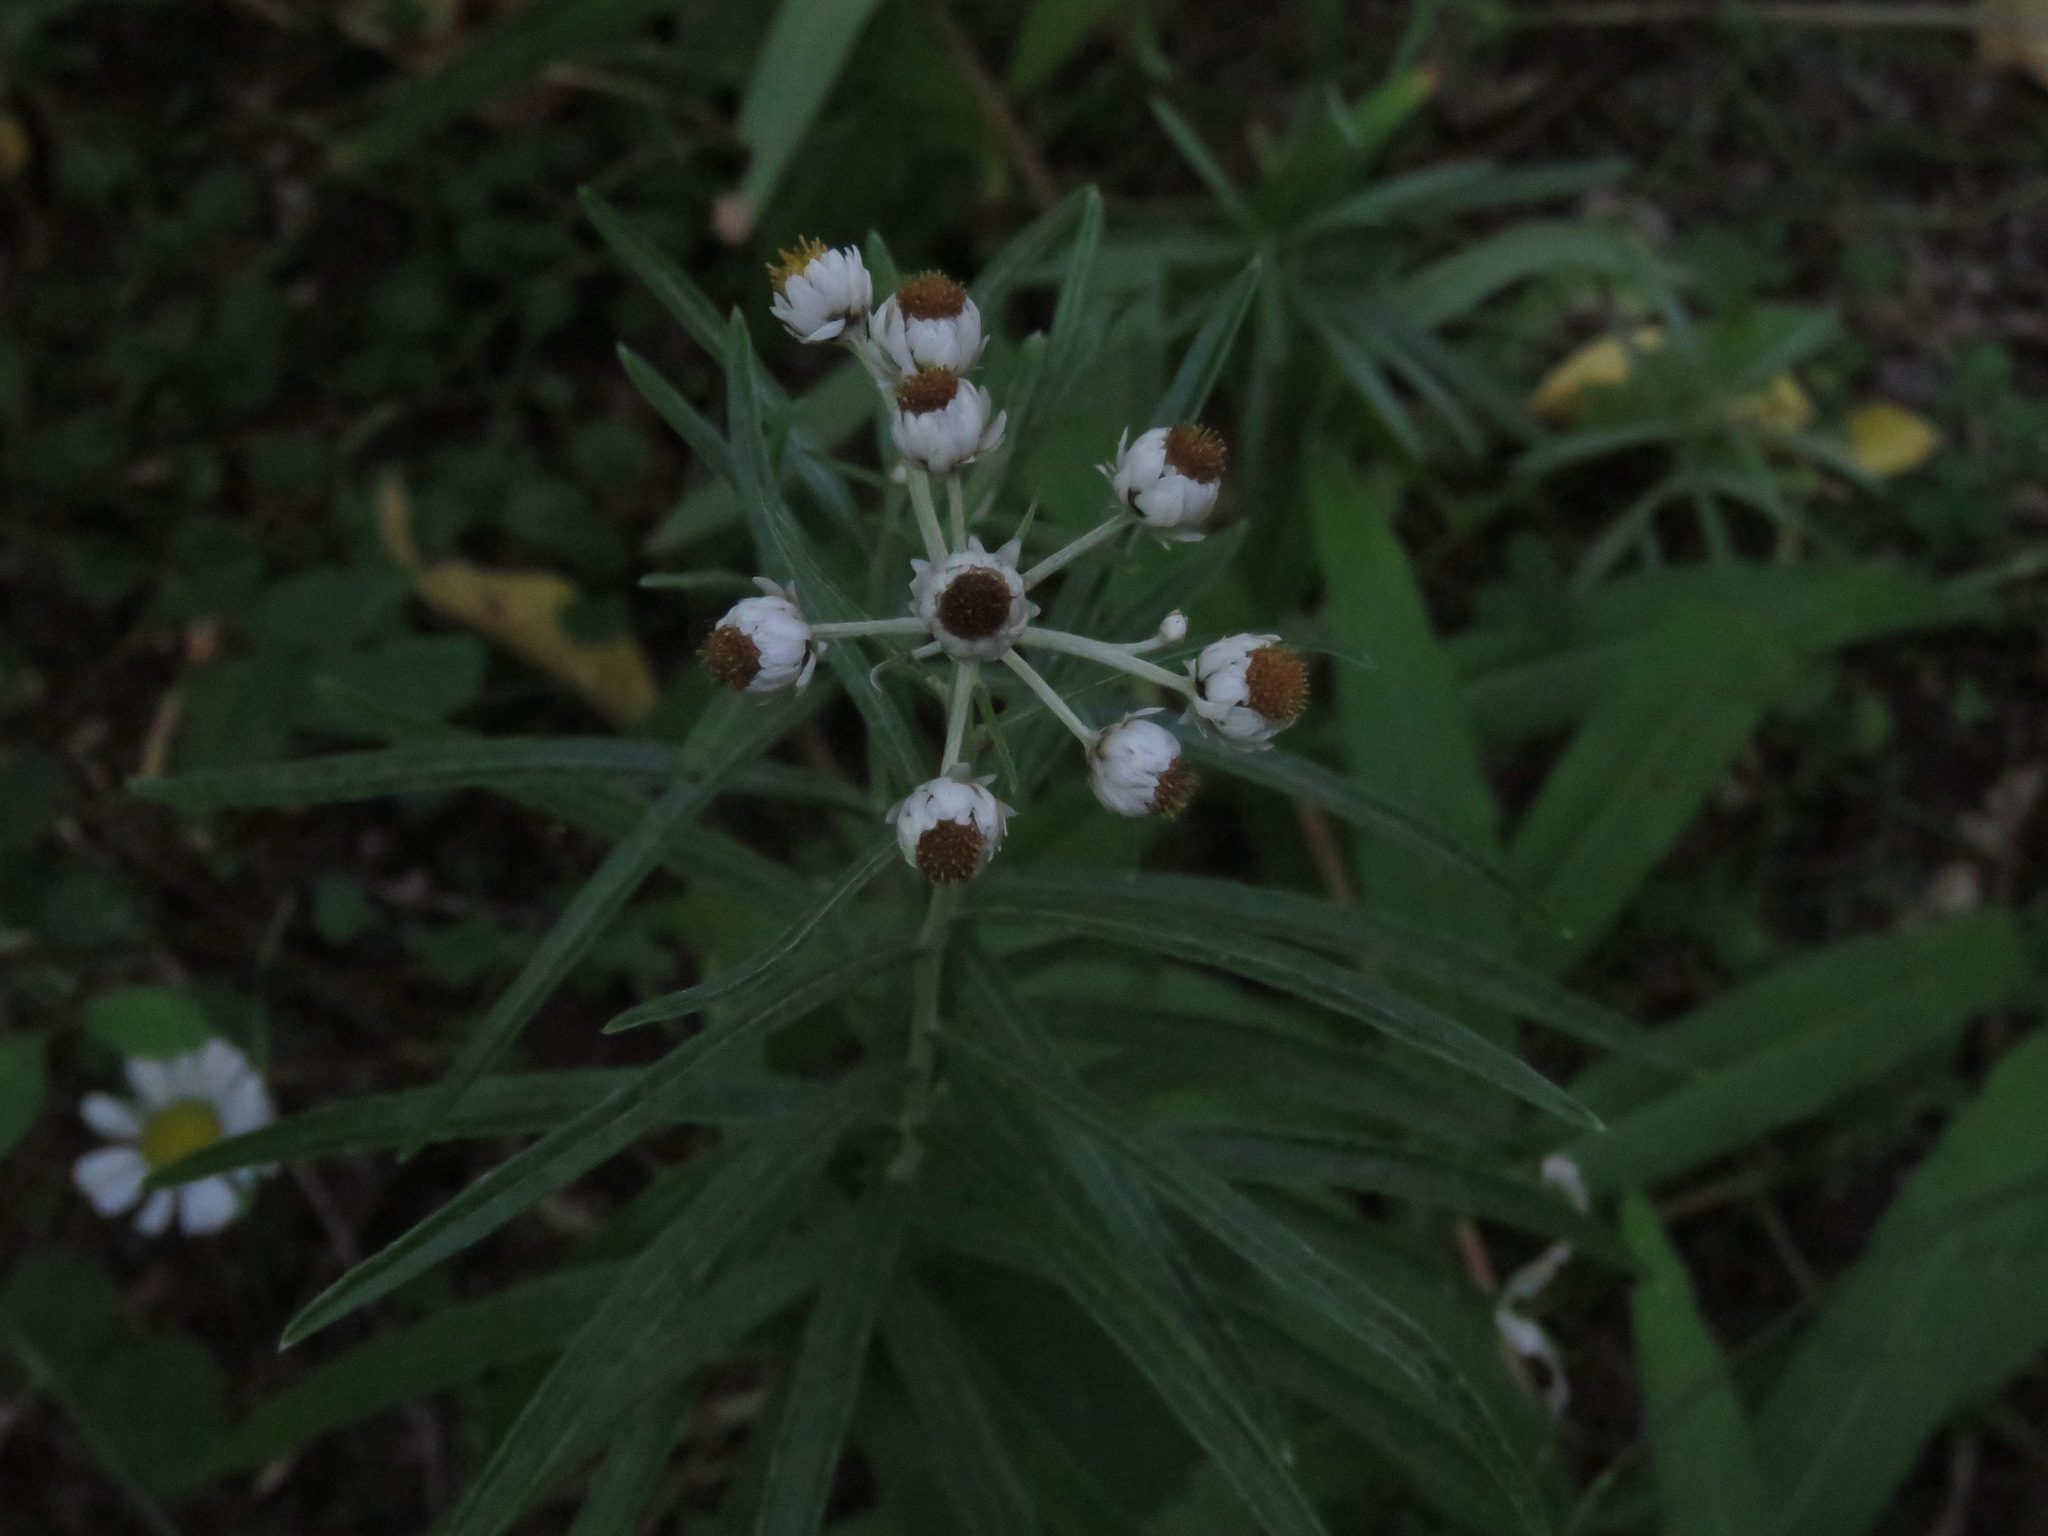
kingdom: Plantae
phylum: Tracheophyta
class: Magnoliopsida
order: Asterales
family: Asteraceae
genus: Anaphalis
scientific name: Anaphalis margaritacea
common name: Pearly everlasting
